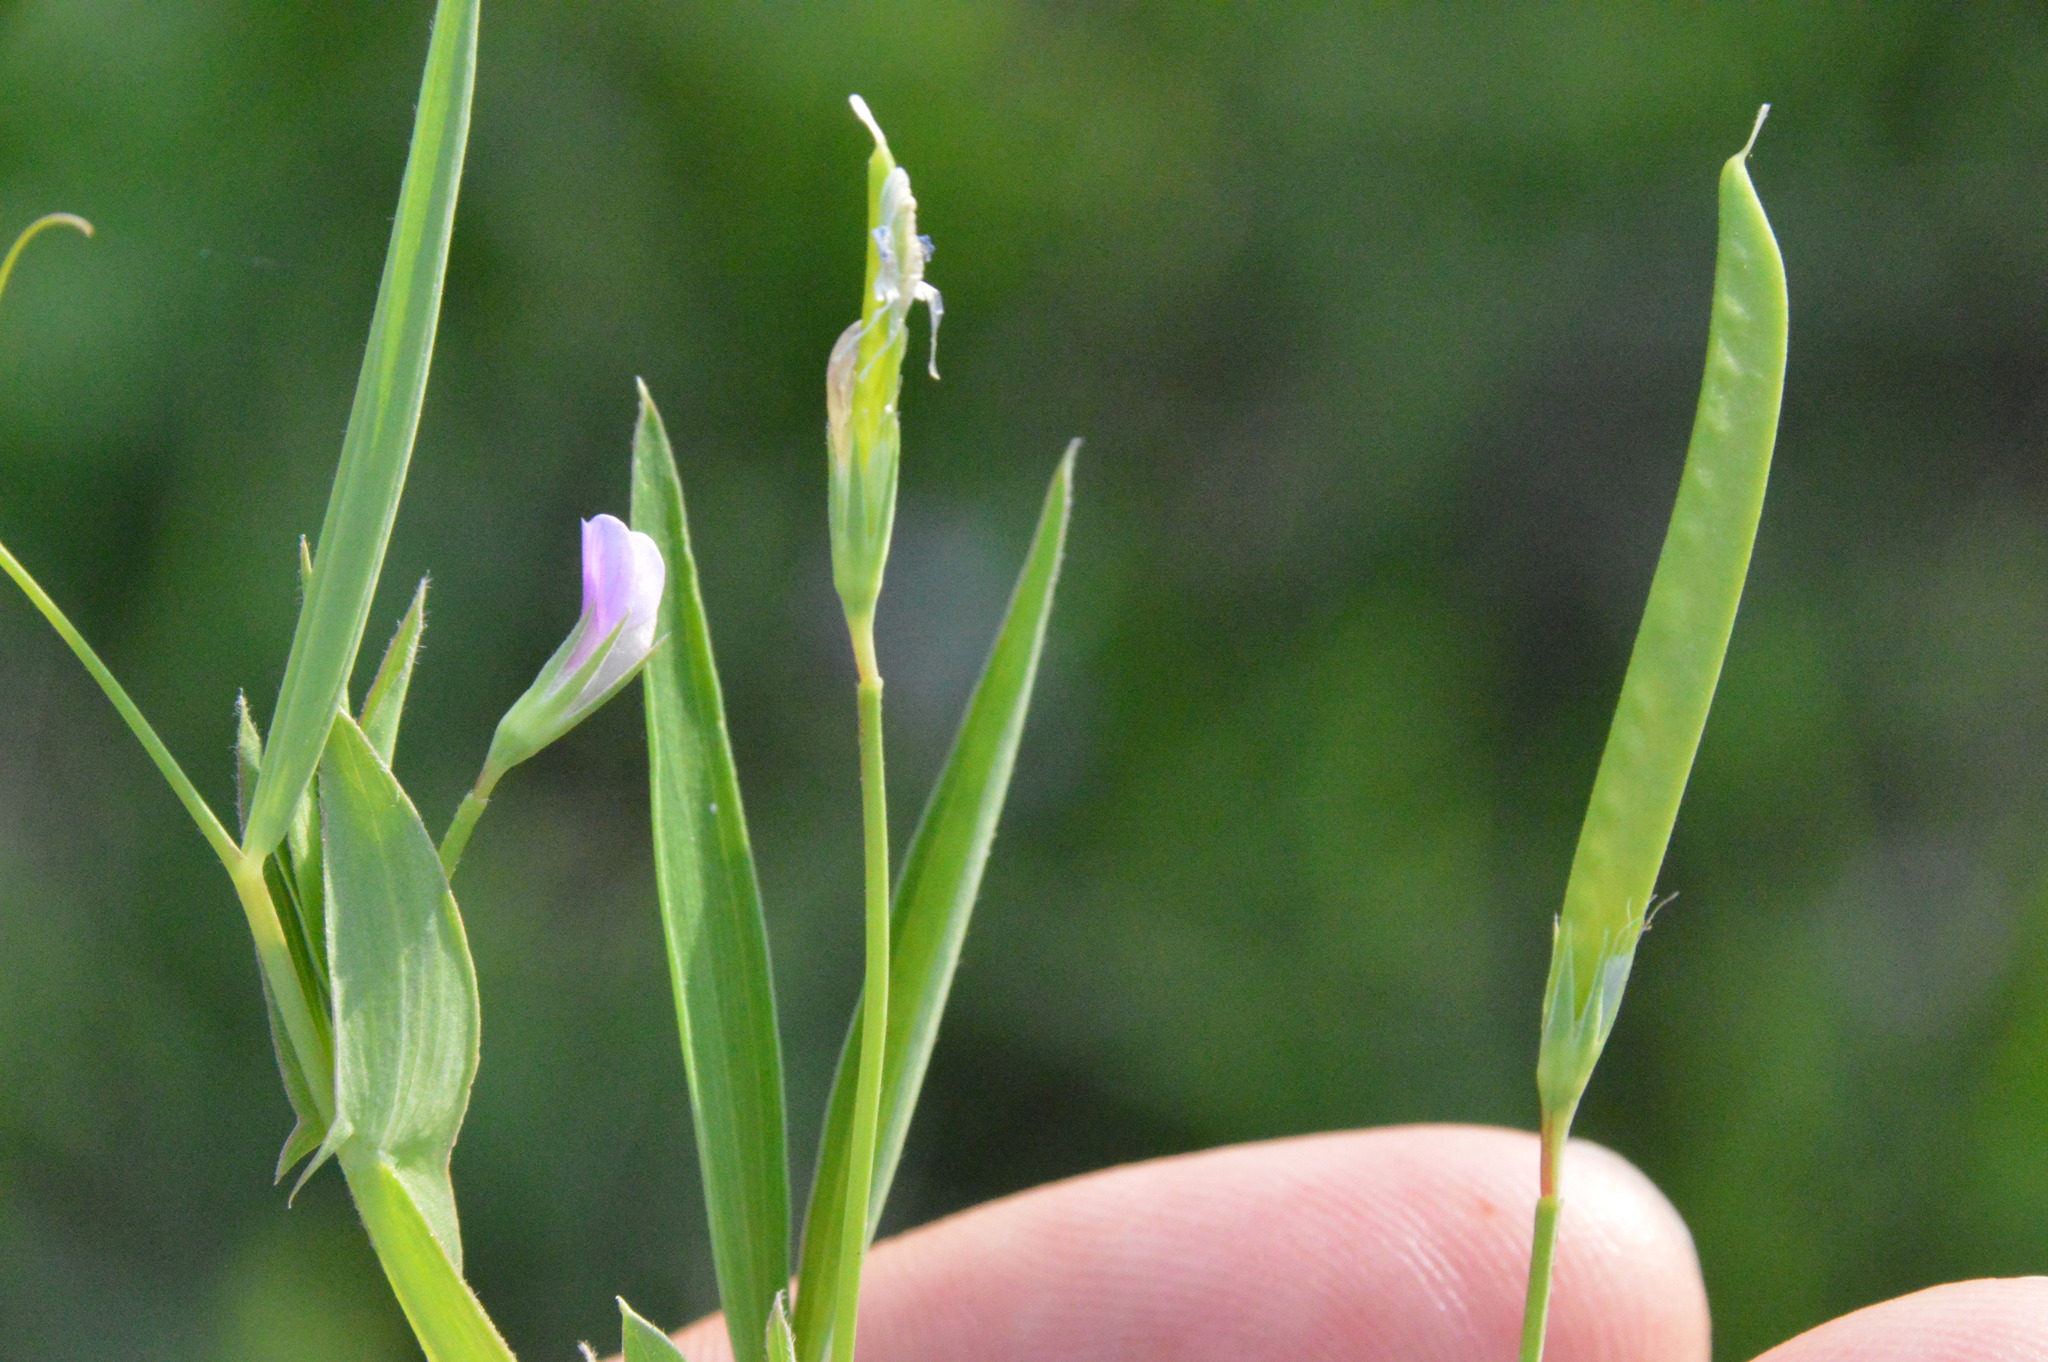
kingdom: Plantae
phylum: Tracheophyta
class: Magnoliopsida
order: Fabales
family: Fabaceae
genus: Lathyrus
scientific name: Lathyrus pusillus
